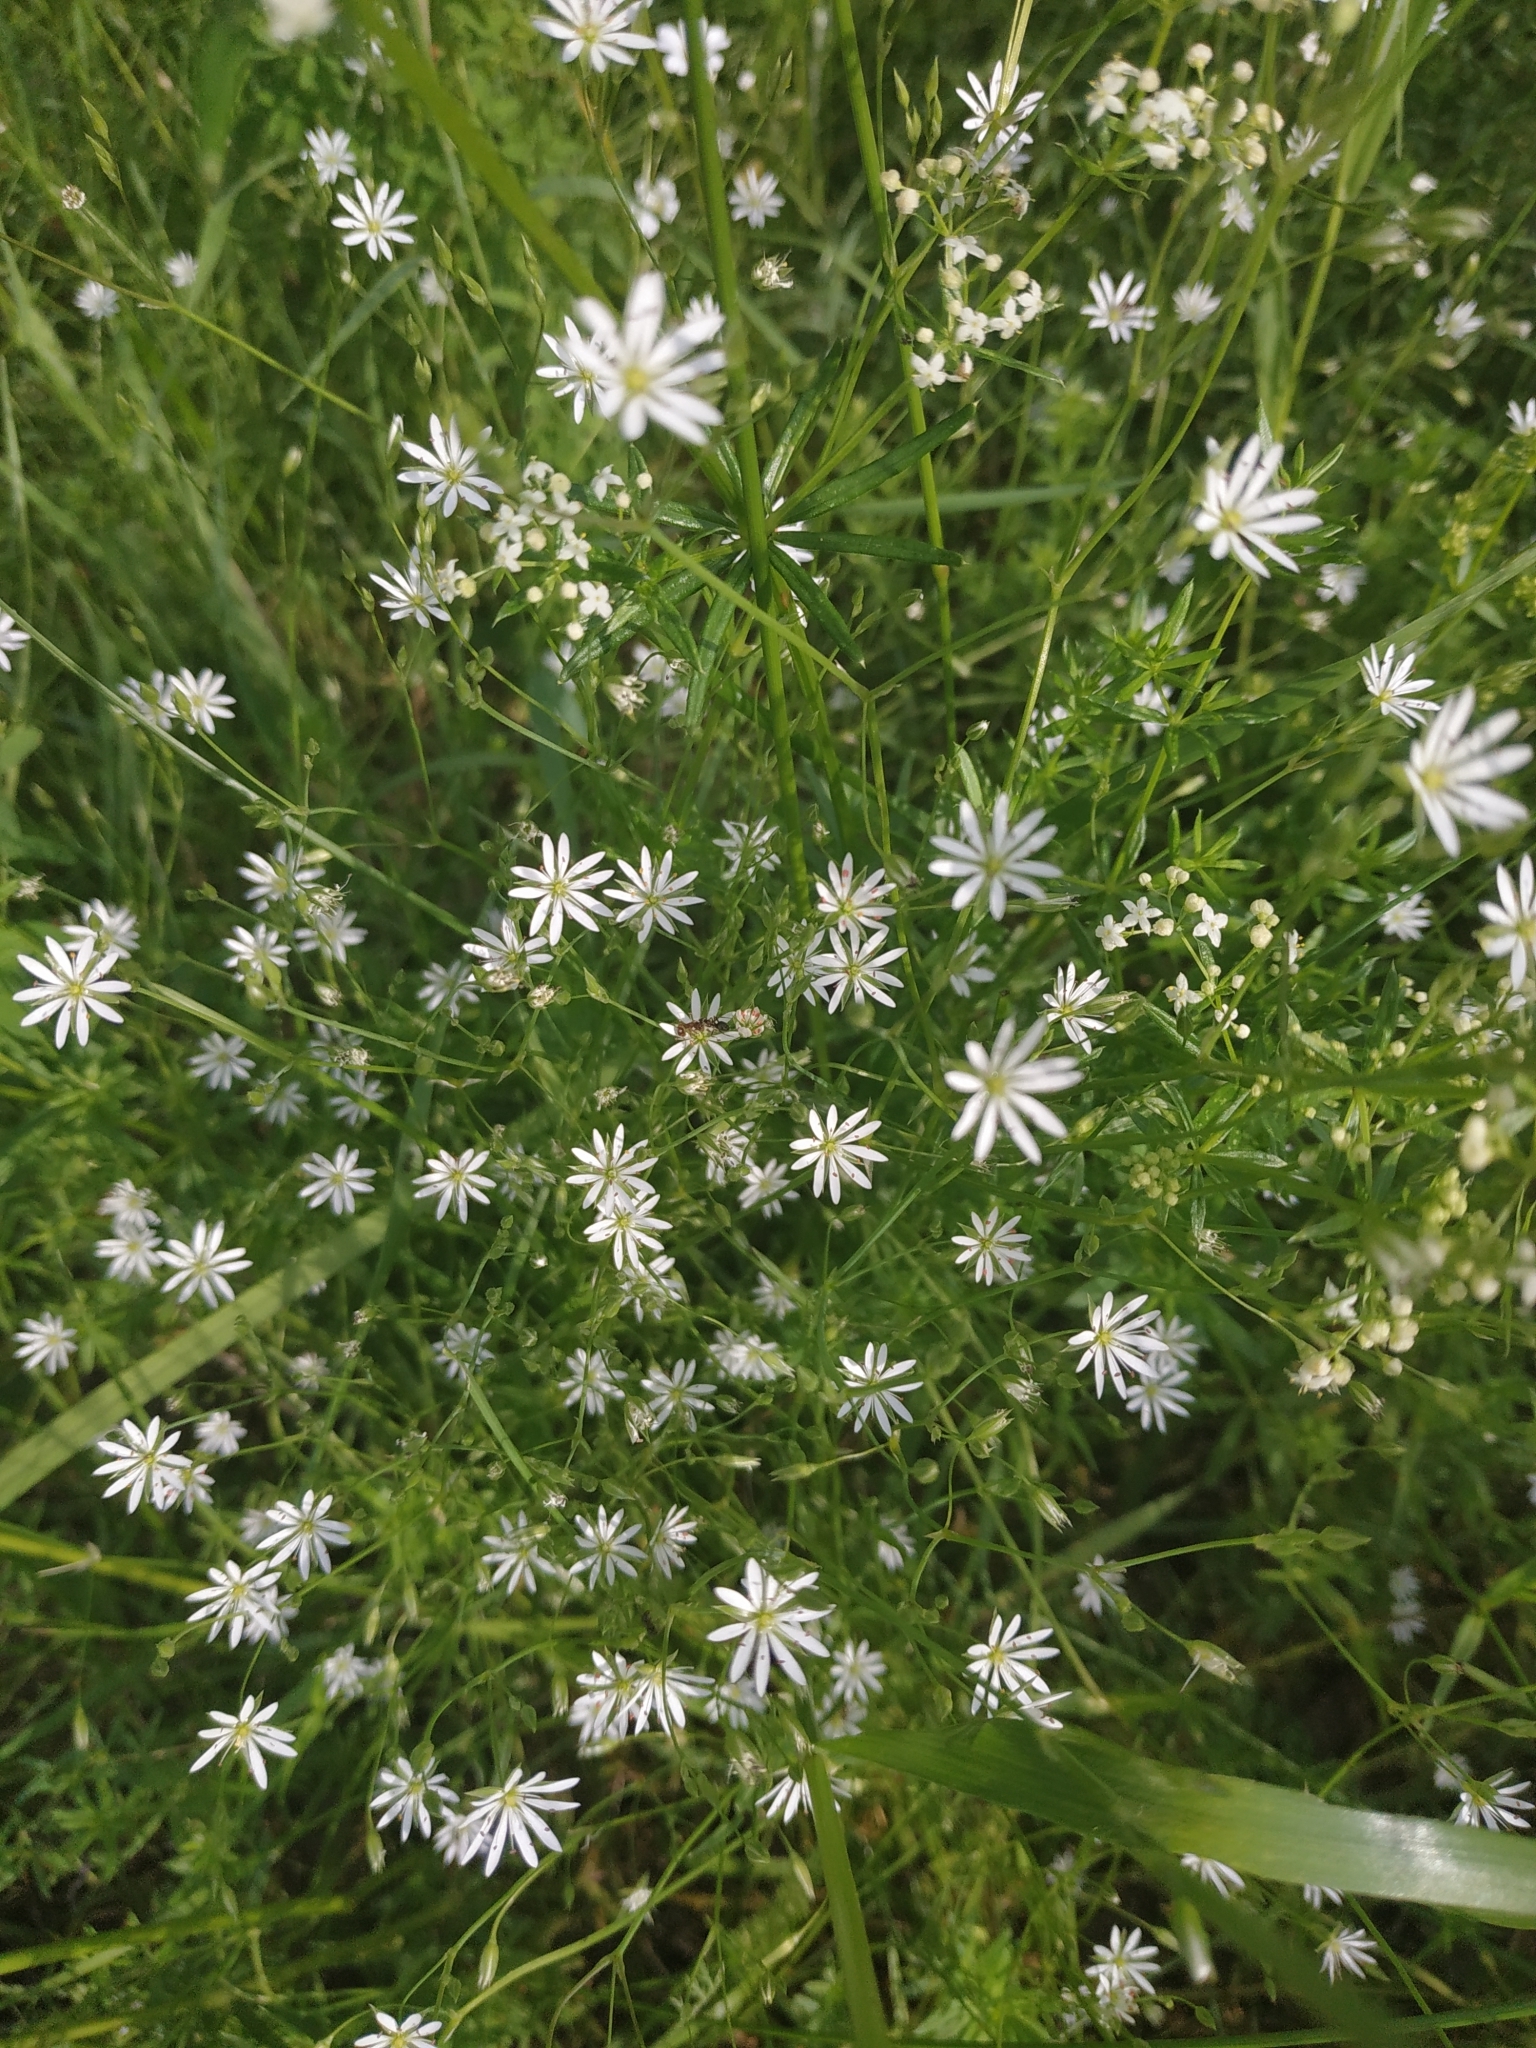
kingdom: Plantae
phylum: Tracheophyta
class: Magnoliopsida
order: Caryophyllales
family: Caryophyllaceae
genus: Stellaria
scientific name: Stellaria graminea
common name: Grass-like starwort
